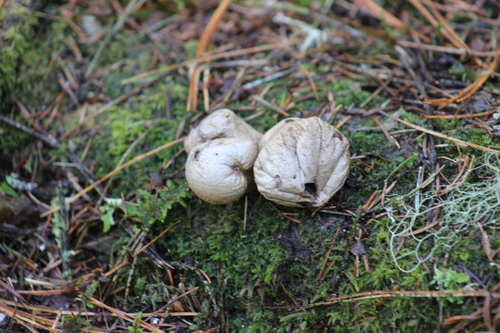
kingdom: Fungi
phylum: Basidiomycota
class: Agaricomycetes
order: Agaricales
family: Lycoperdaceae
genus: Lycoperdon
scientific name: Lycoperdon perlatum
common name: Common puffball
